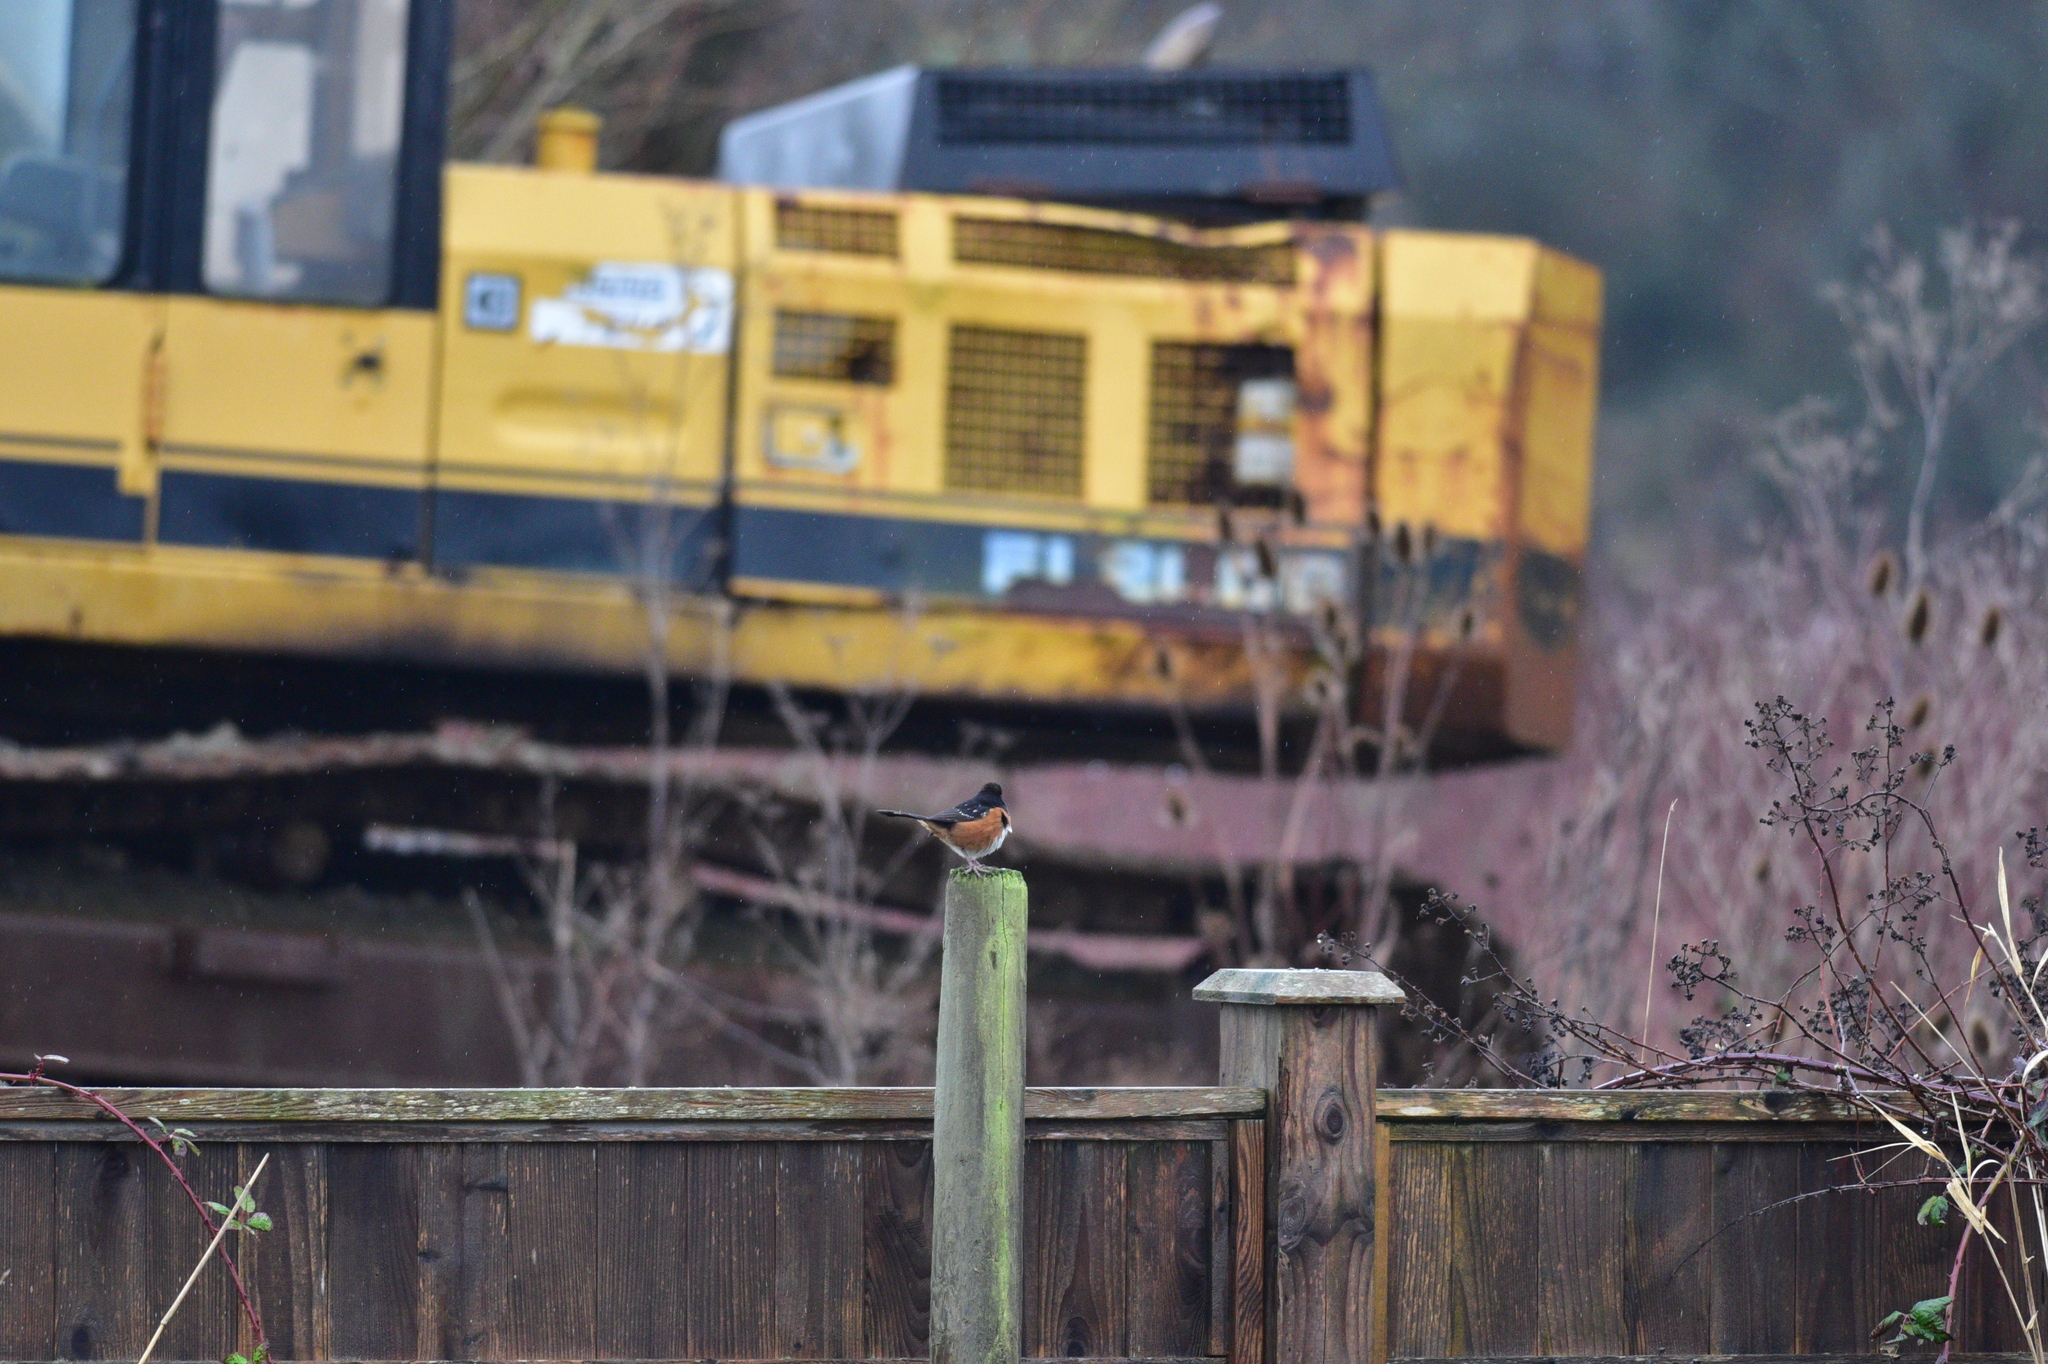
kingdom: Animalia
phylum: Chordata
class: Aves
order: Passeriformes
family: Passerellidae
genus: Pipilo
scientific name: Pipilo maculatus
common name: Spotted towhee
